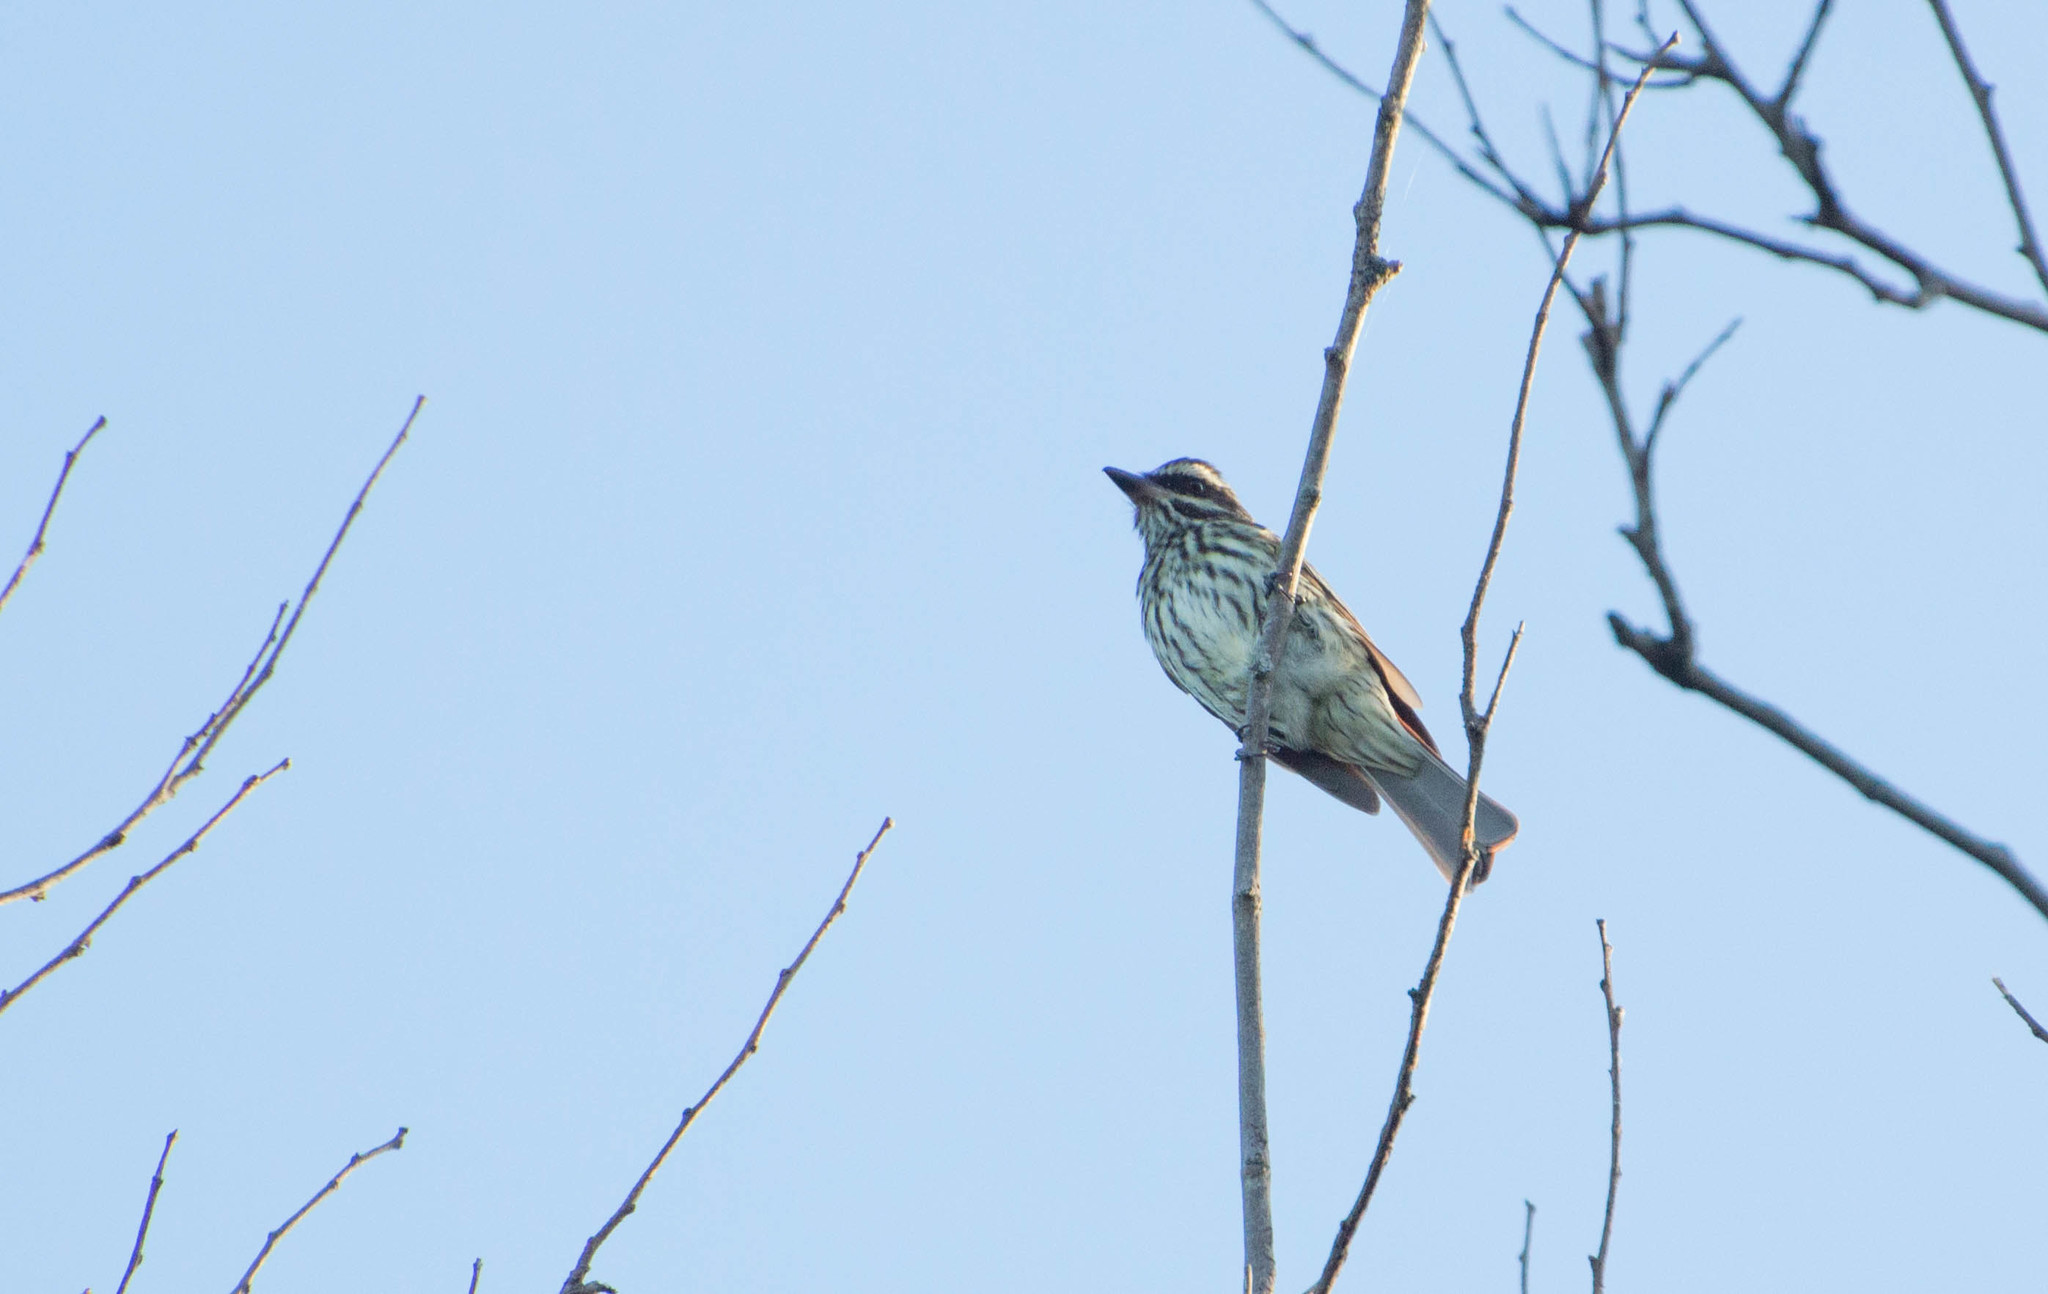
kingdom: Animalia
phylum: Chordata
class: Aves
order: Passeriformes
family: Tyrannidae
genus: Myiodynastes
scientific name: Myiodynastes maculatus
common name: Streaked flycatcher
